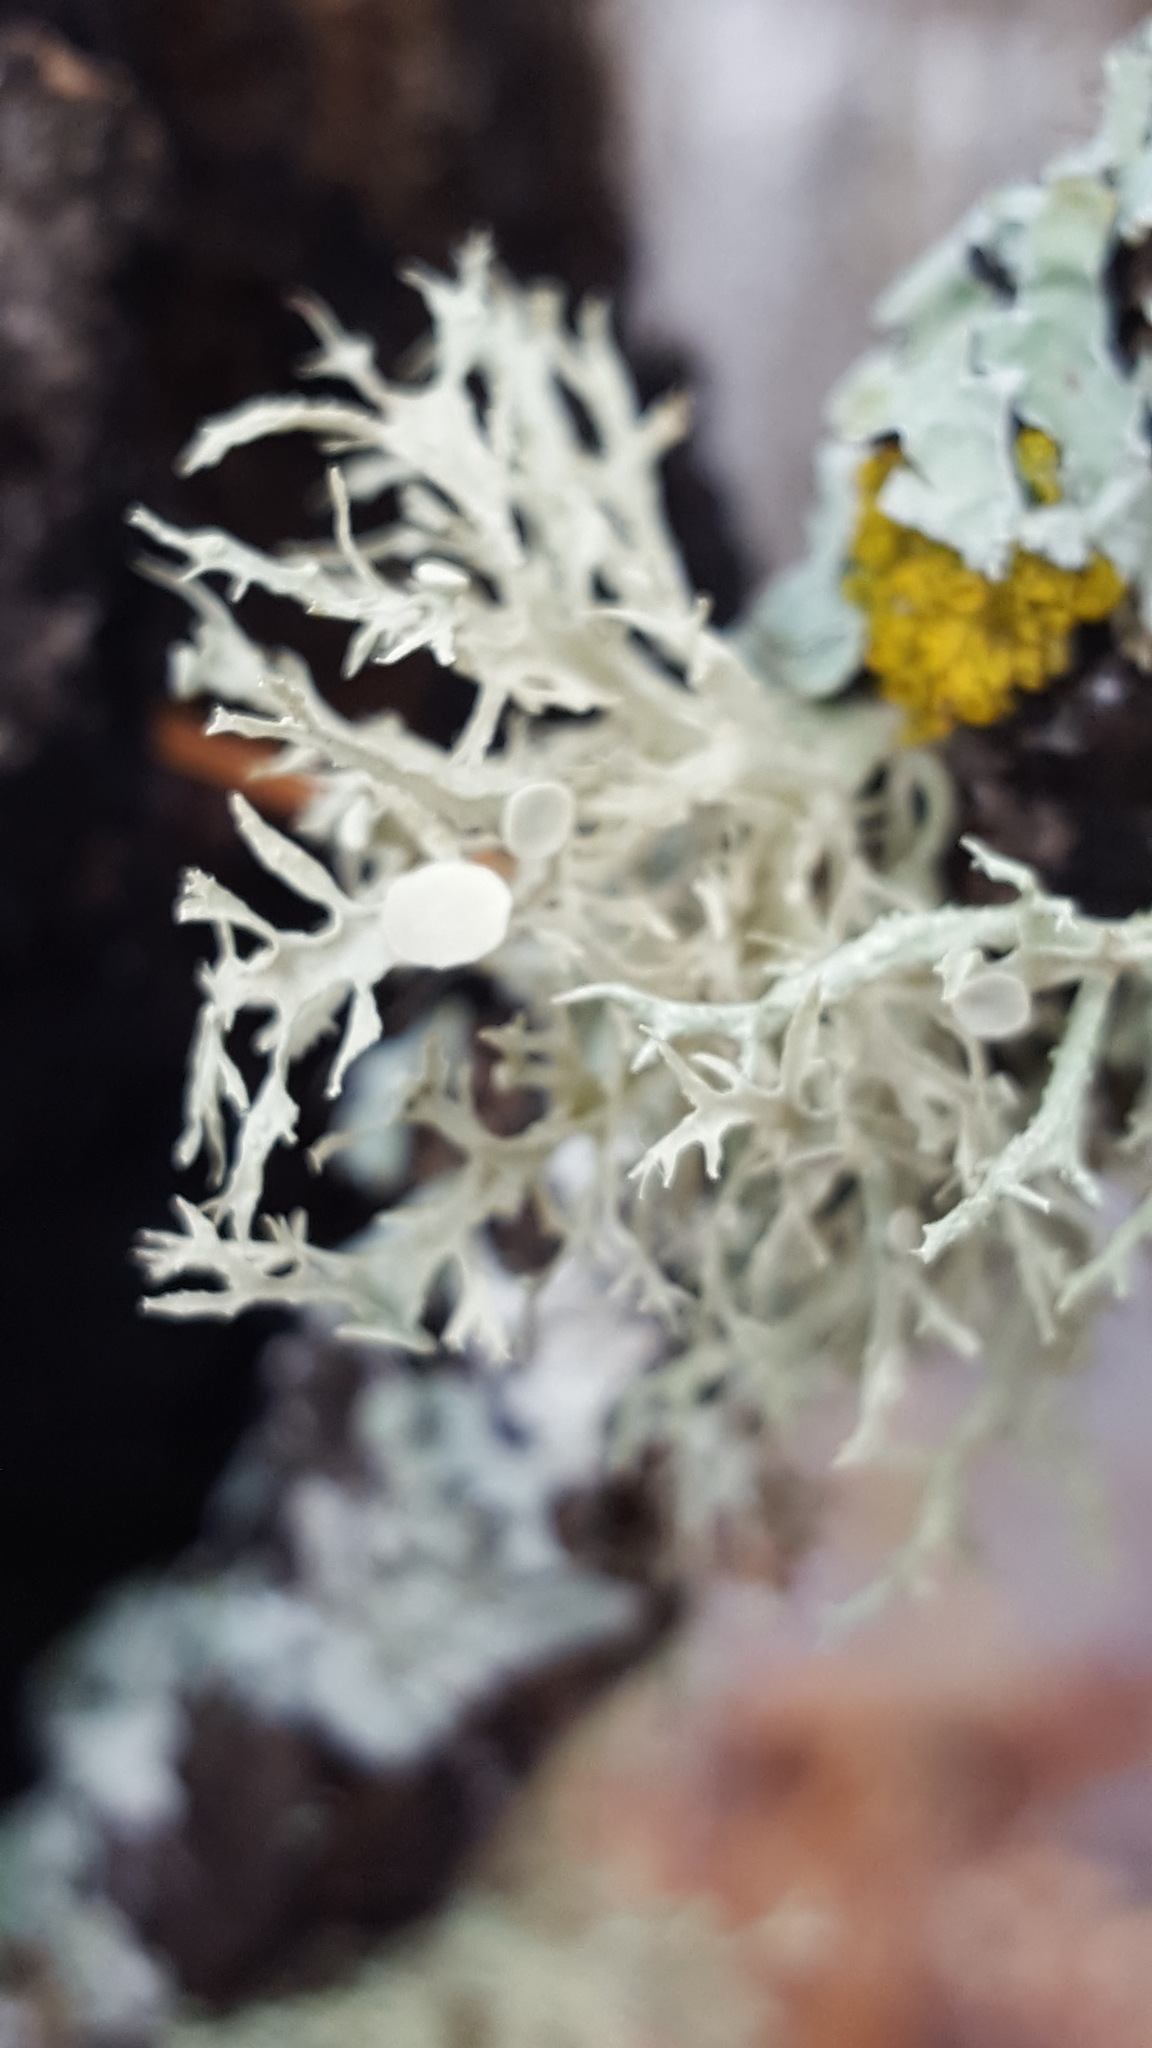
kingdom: Fungi
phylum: Ascomycota
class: Lecanoromycetes
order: Lecanorales
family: Ramalinaceae
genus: Ramalina
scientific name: Ramalina americana
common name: Sinewed bush lichen
